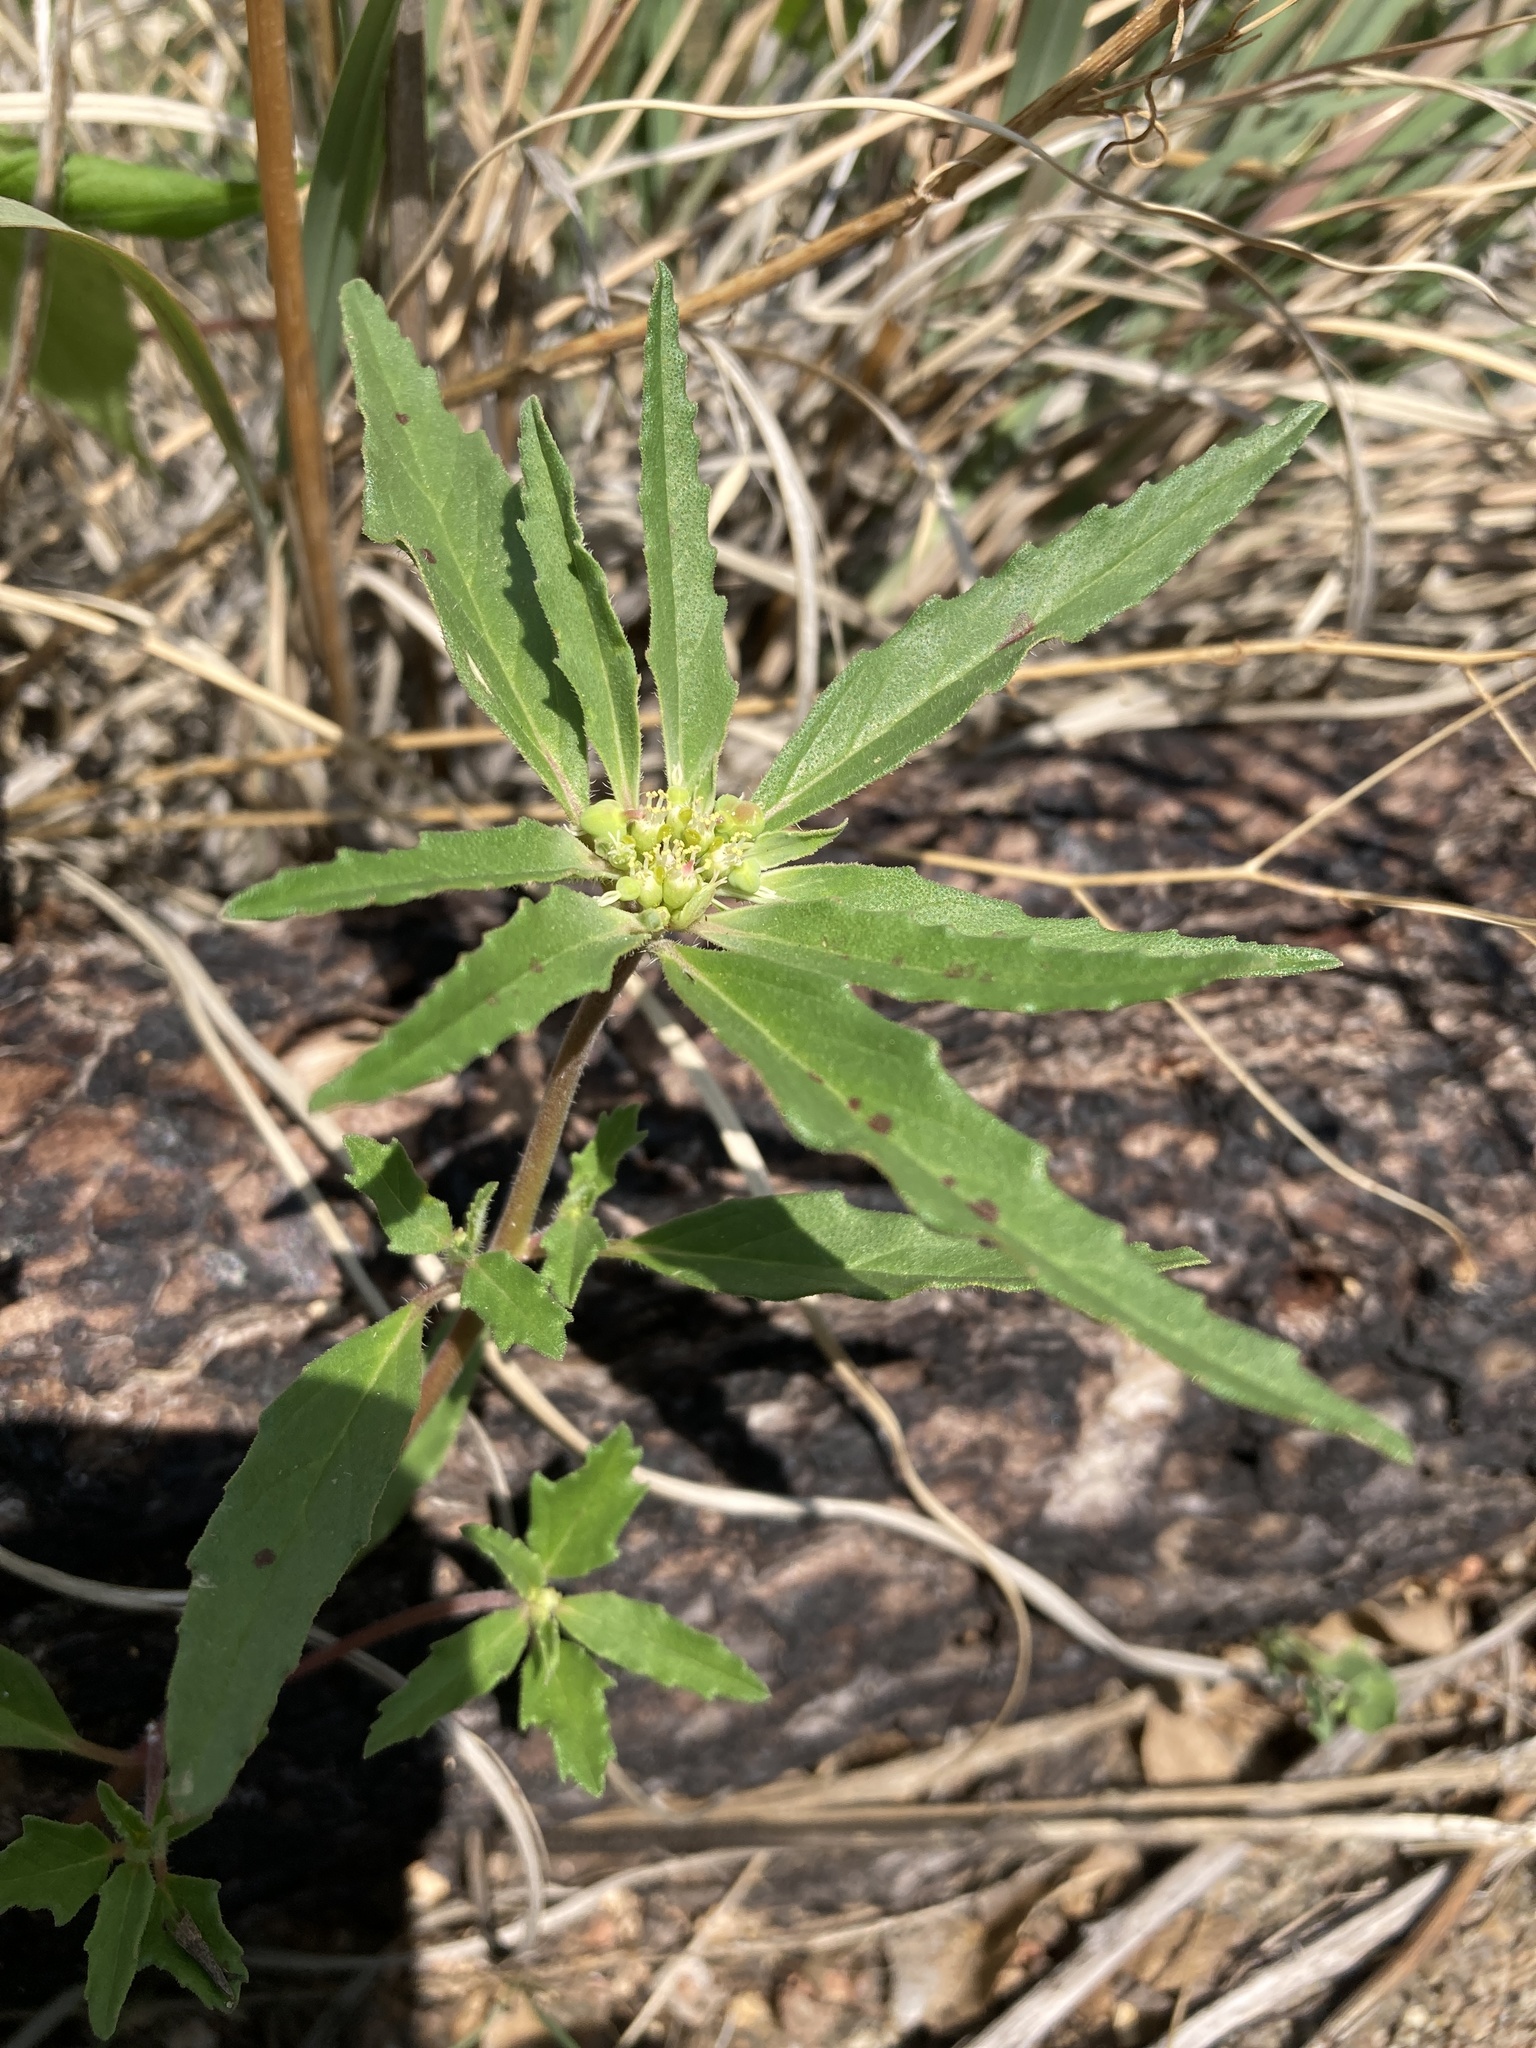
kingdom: Plantae
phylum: Tracheophyta
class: Magnoliopsida
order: Malpighiales
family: Euphorbiaceae
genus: Euphorbia
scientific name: Euphorbia davidii
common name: David's spurge
